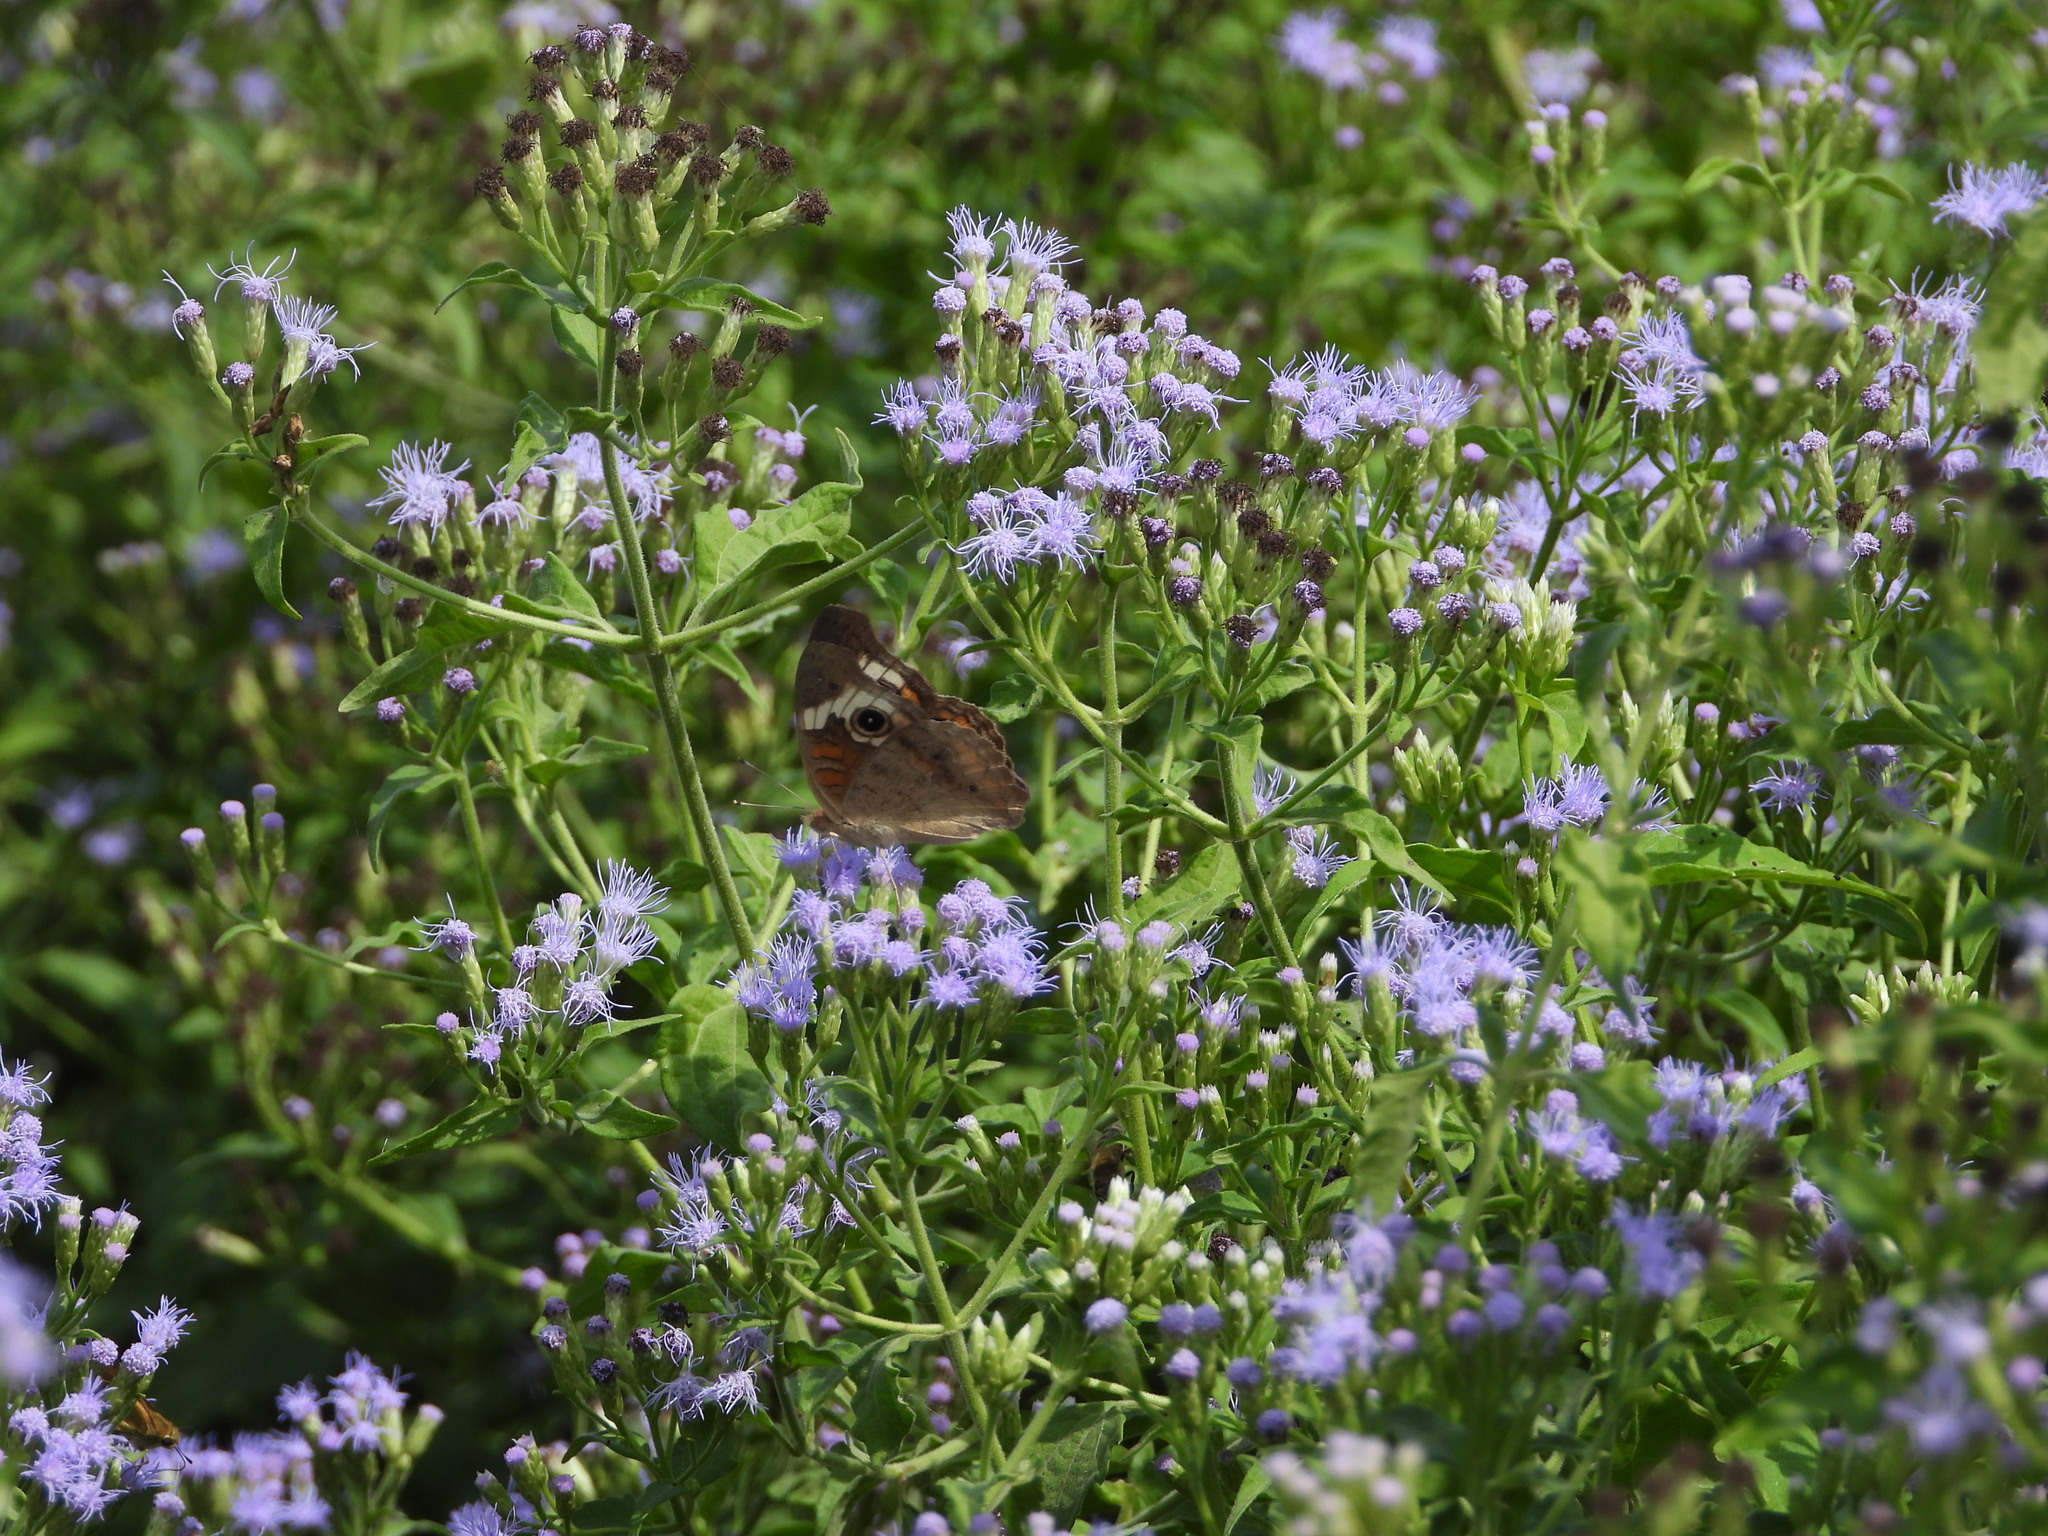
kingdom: Animalia
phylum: Arthropoda
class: Insecta
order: Lepidoptera
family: Nymphalidae
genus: Junonia
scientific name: Junonia coenia
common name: Common buckeye
